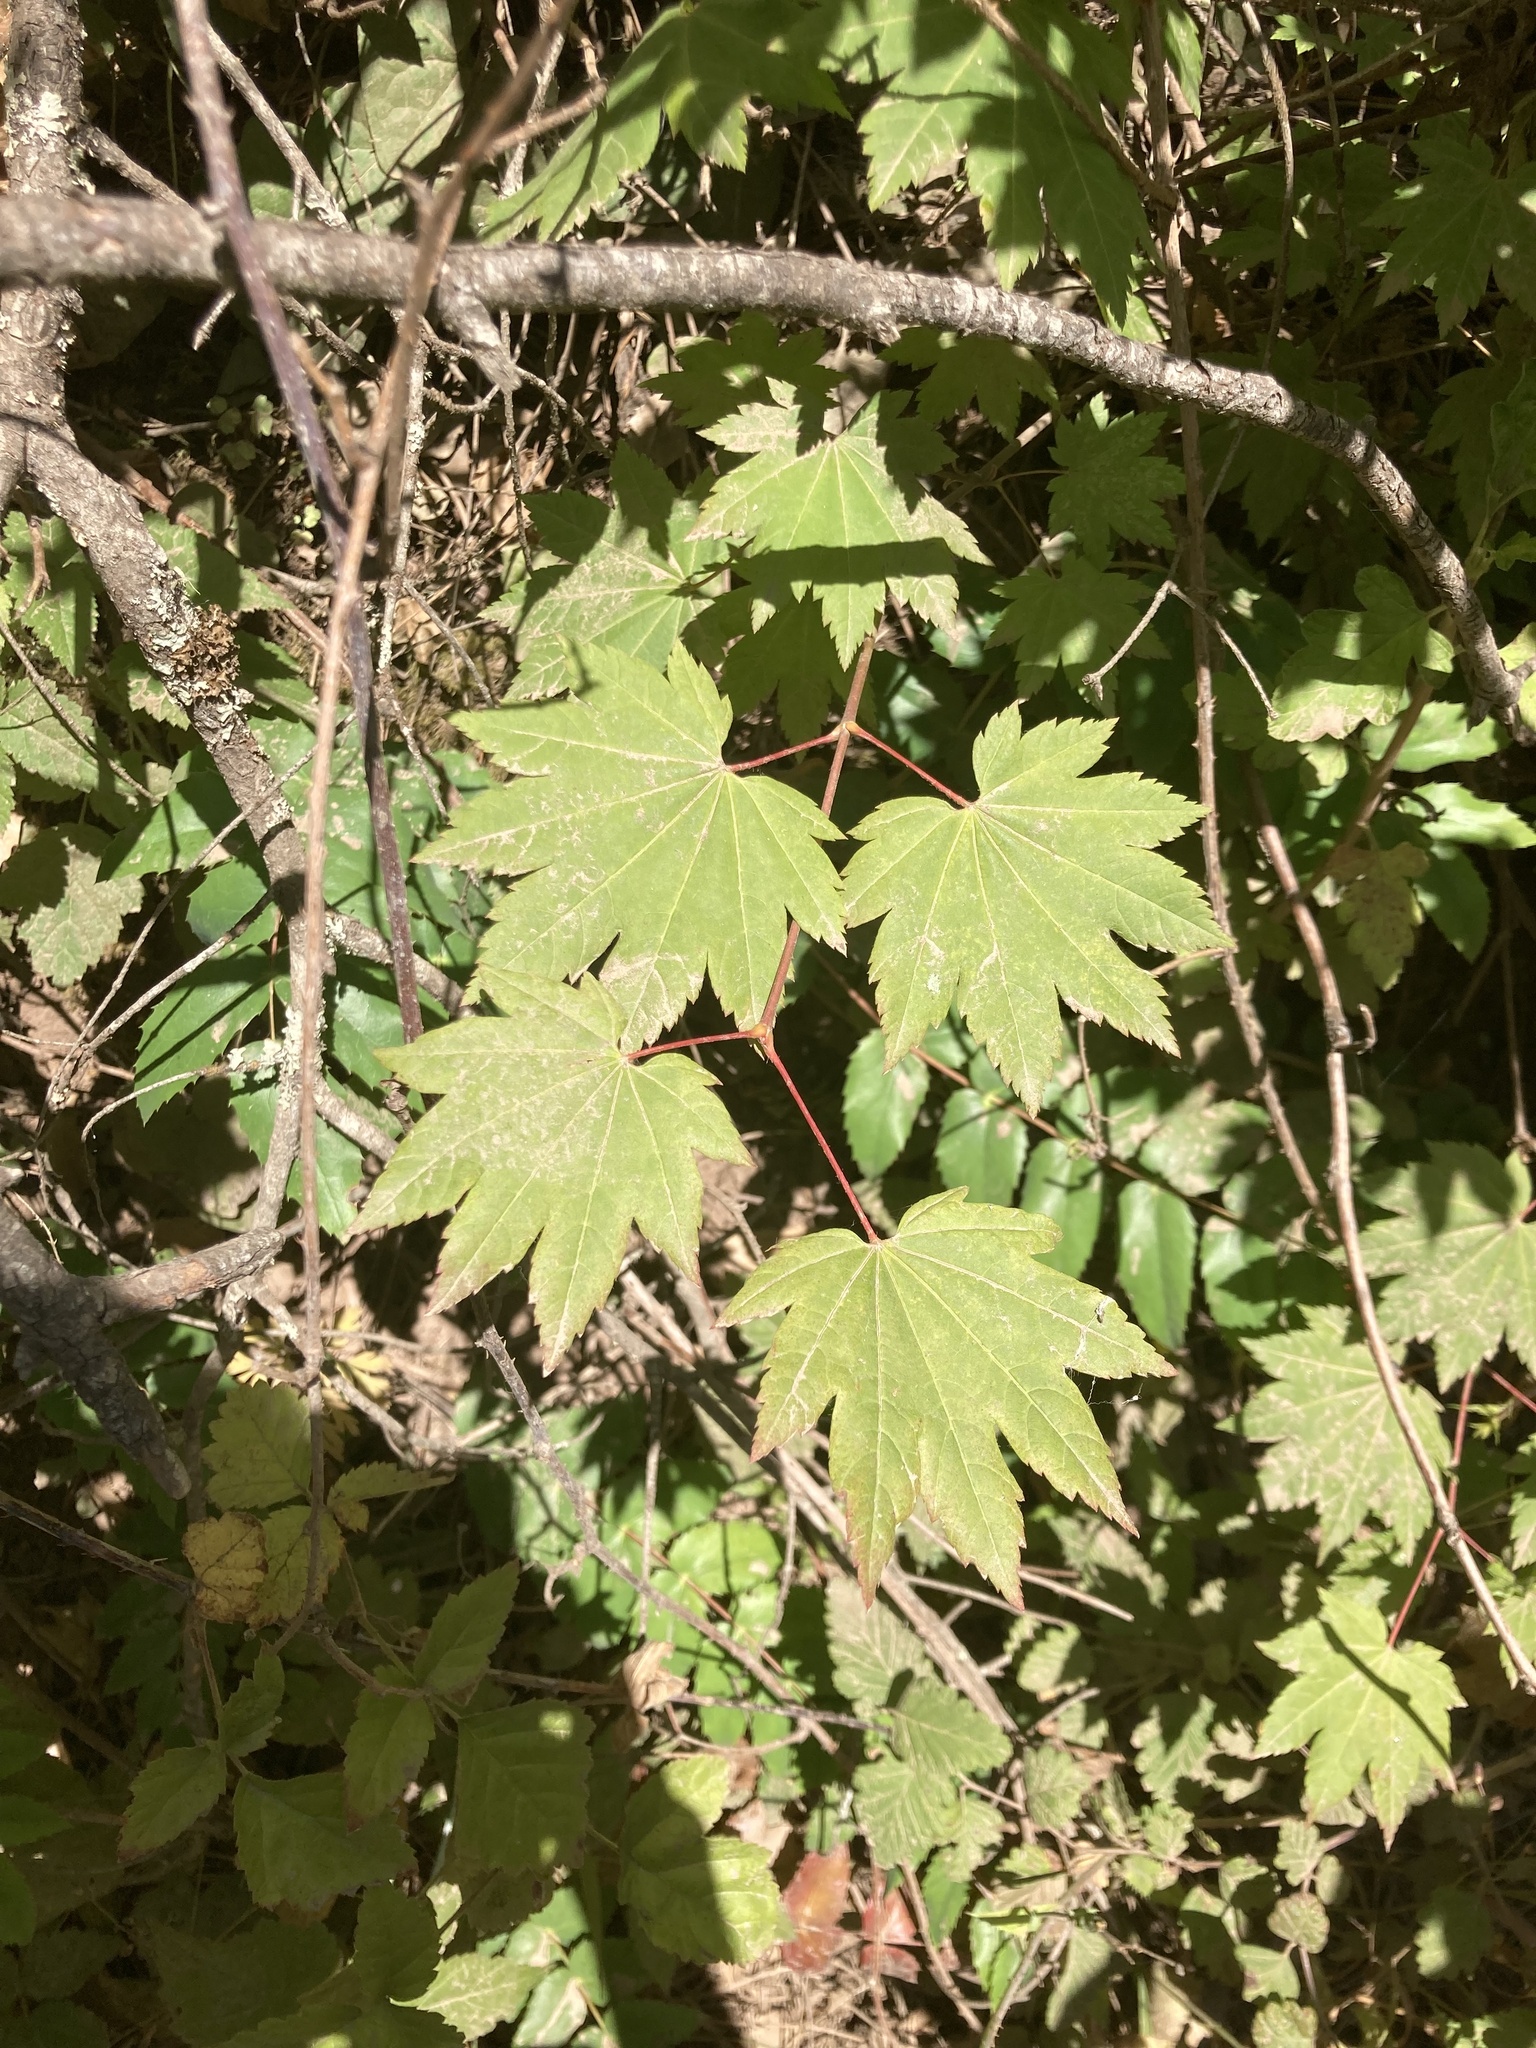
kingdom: Plantae
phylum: Tracheophyta
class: Magnoliopsida
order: Sapindales
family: Sapindaceae
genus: Acer
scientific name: Acer circinatum
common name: Vine maple
